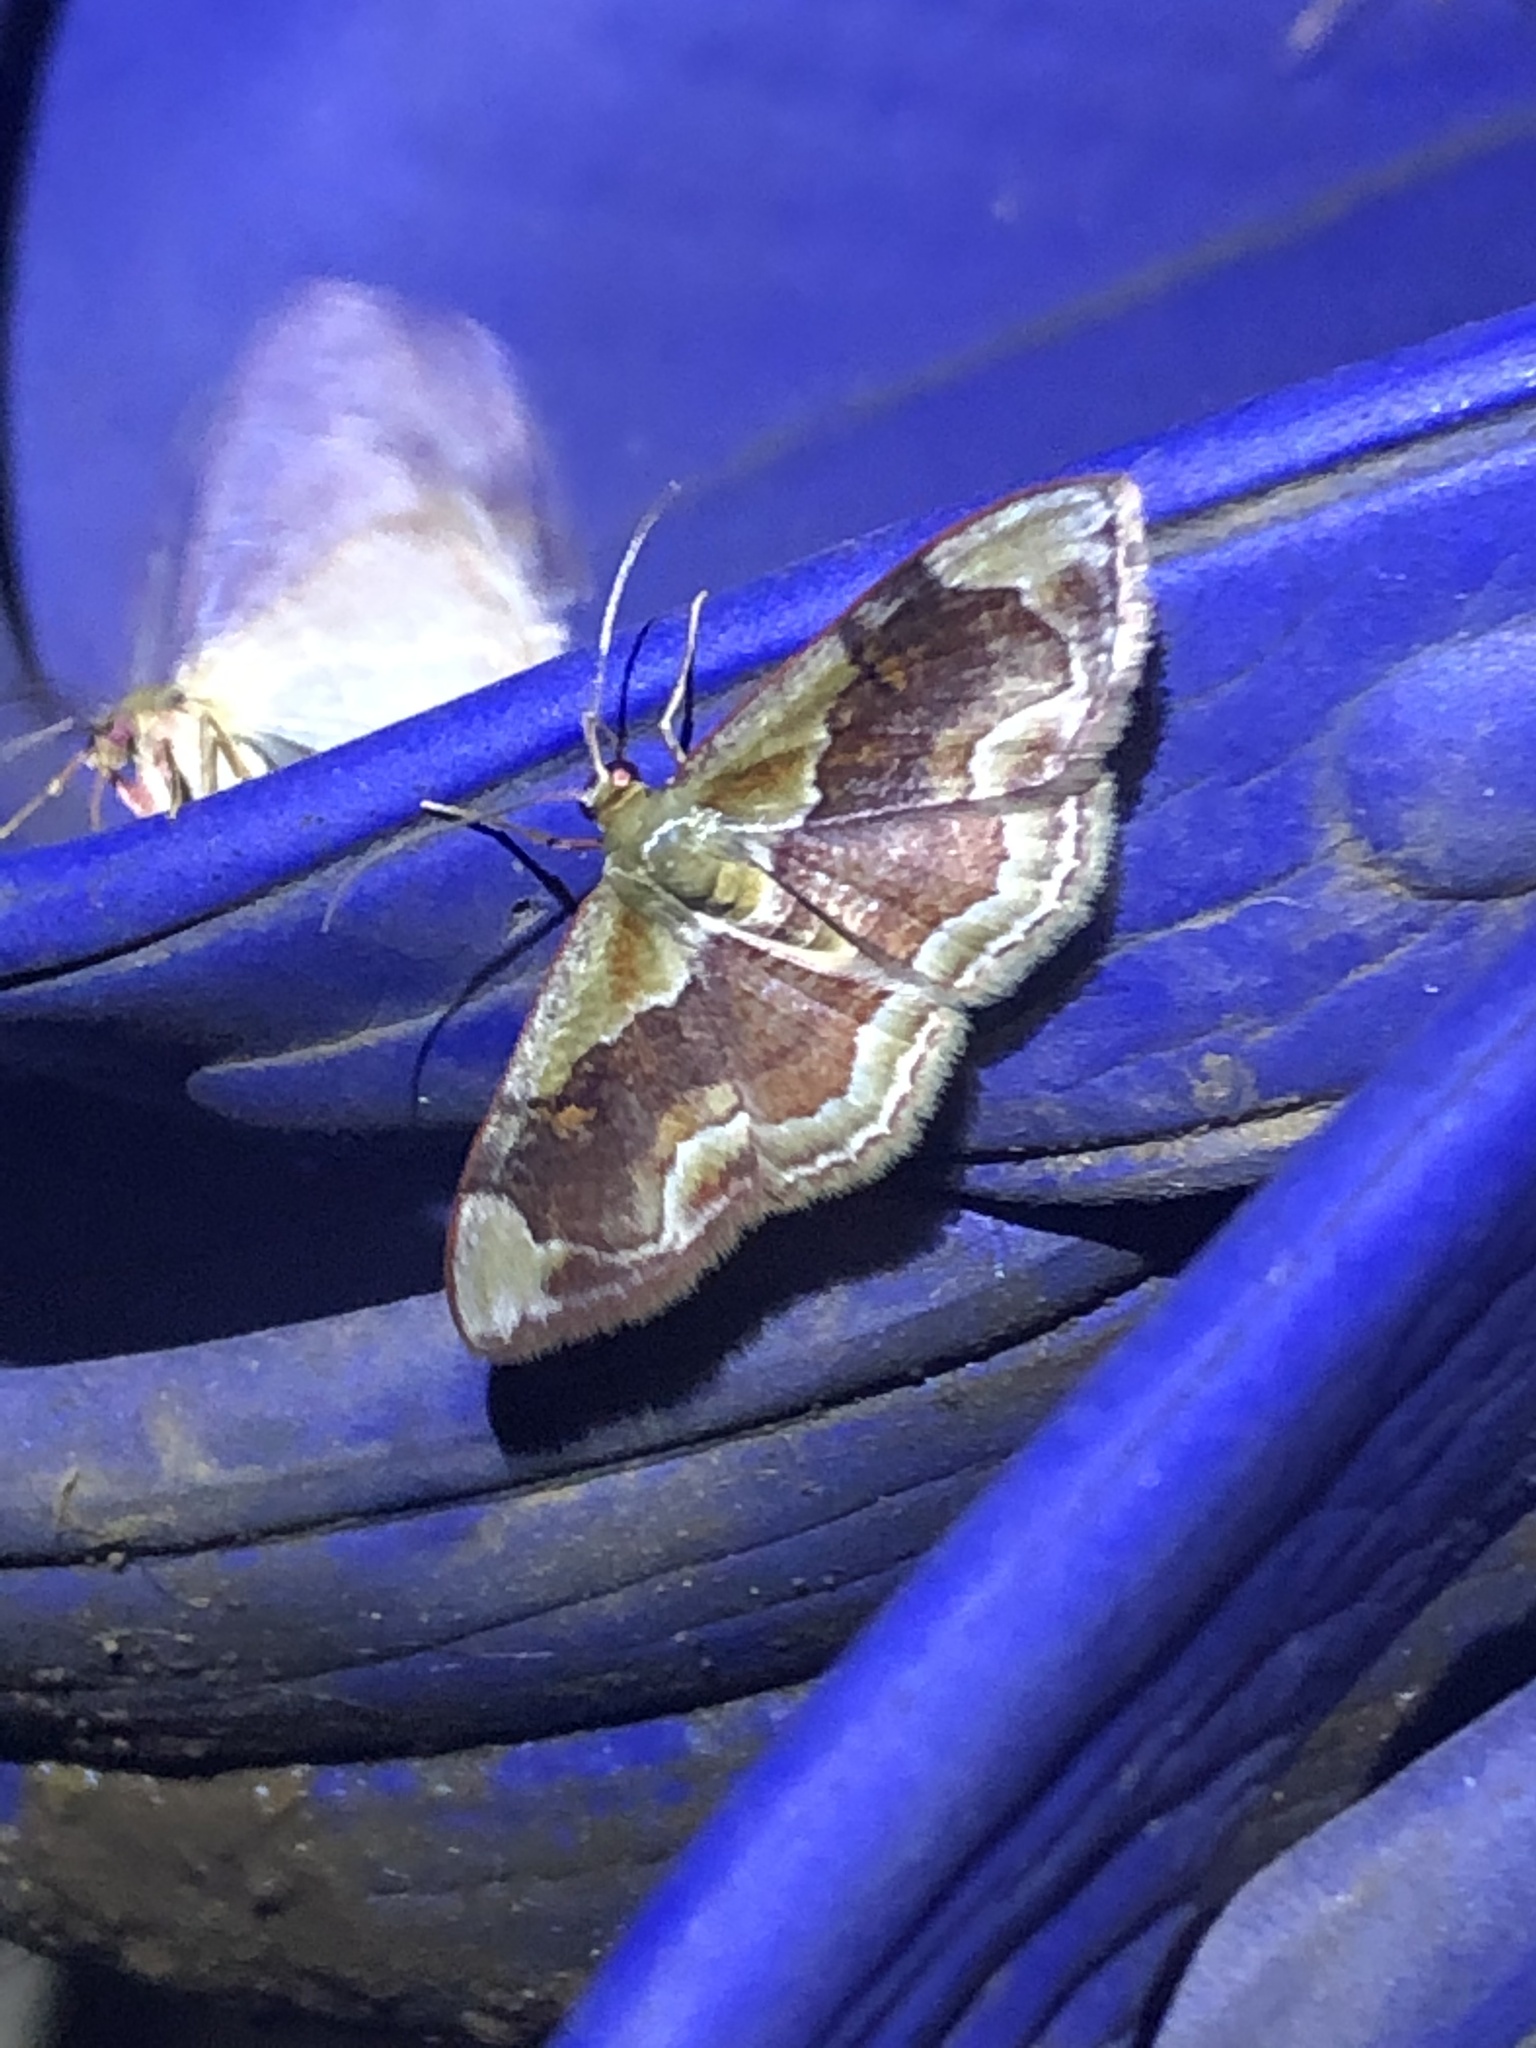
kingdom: Animalia
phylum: Arthropoda
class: Insecta
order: Lepidoptera
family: Geometridae
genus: Leptostales
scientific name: Leptostales angulata
